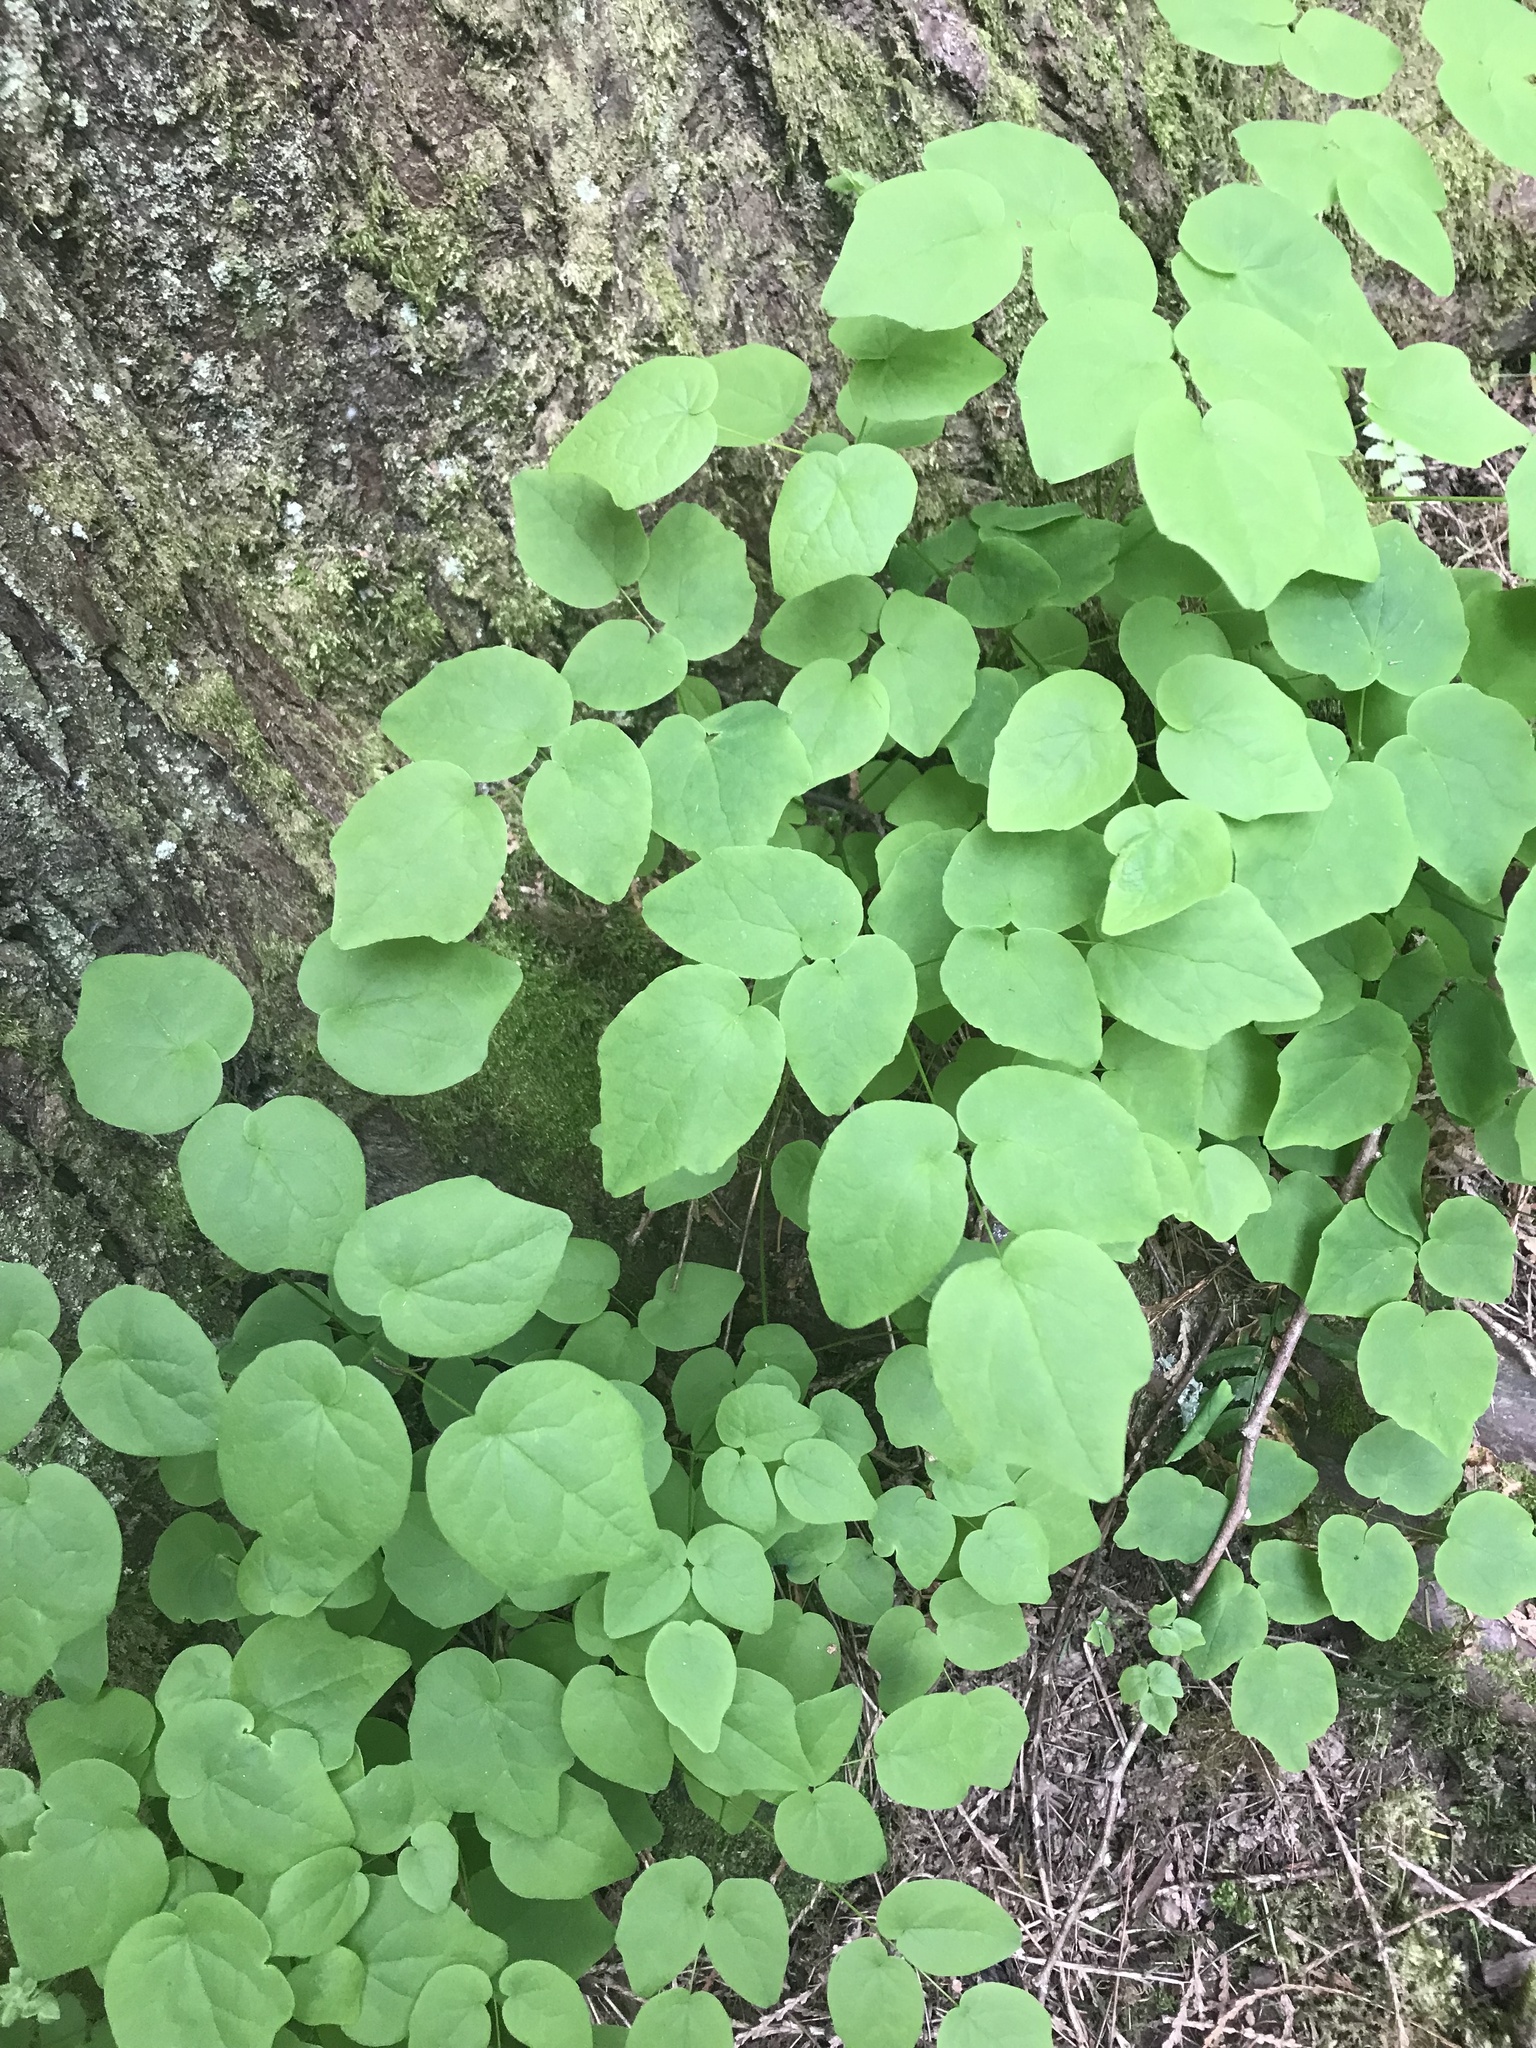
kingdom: Plantae
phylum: Tracheophyta
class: Magnoliopsida
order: Ranunculales
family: Berberidaceae
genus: Vancouveria
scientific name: Vancouveria hexandra
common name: Northern inside-out-flower
